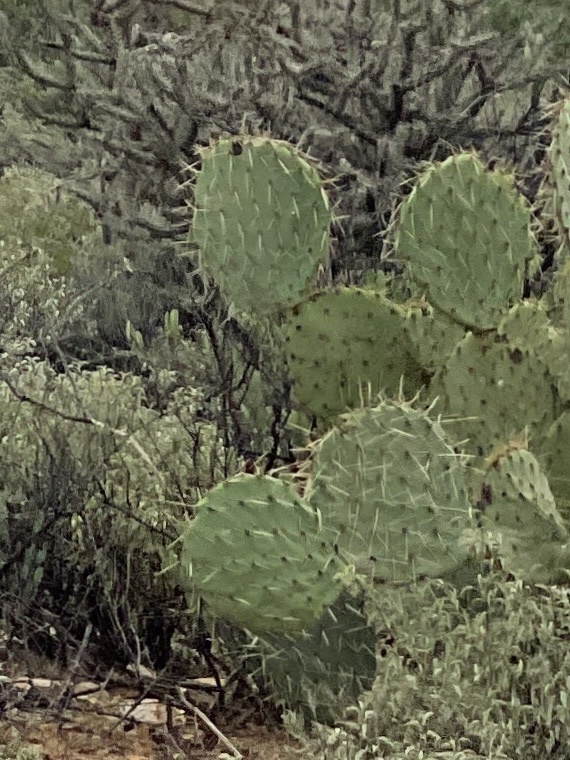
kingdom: Plantae
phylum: Tracheophyta
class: Magnoliopsida
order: Caryophyllales
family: Cactaceae
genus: Opuntia
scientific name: Opuntia engelmannii
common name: Cactus-apple
